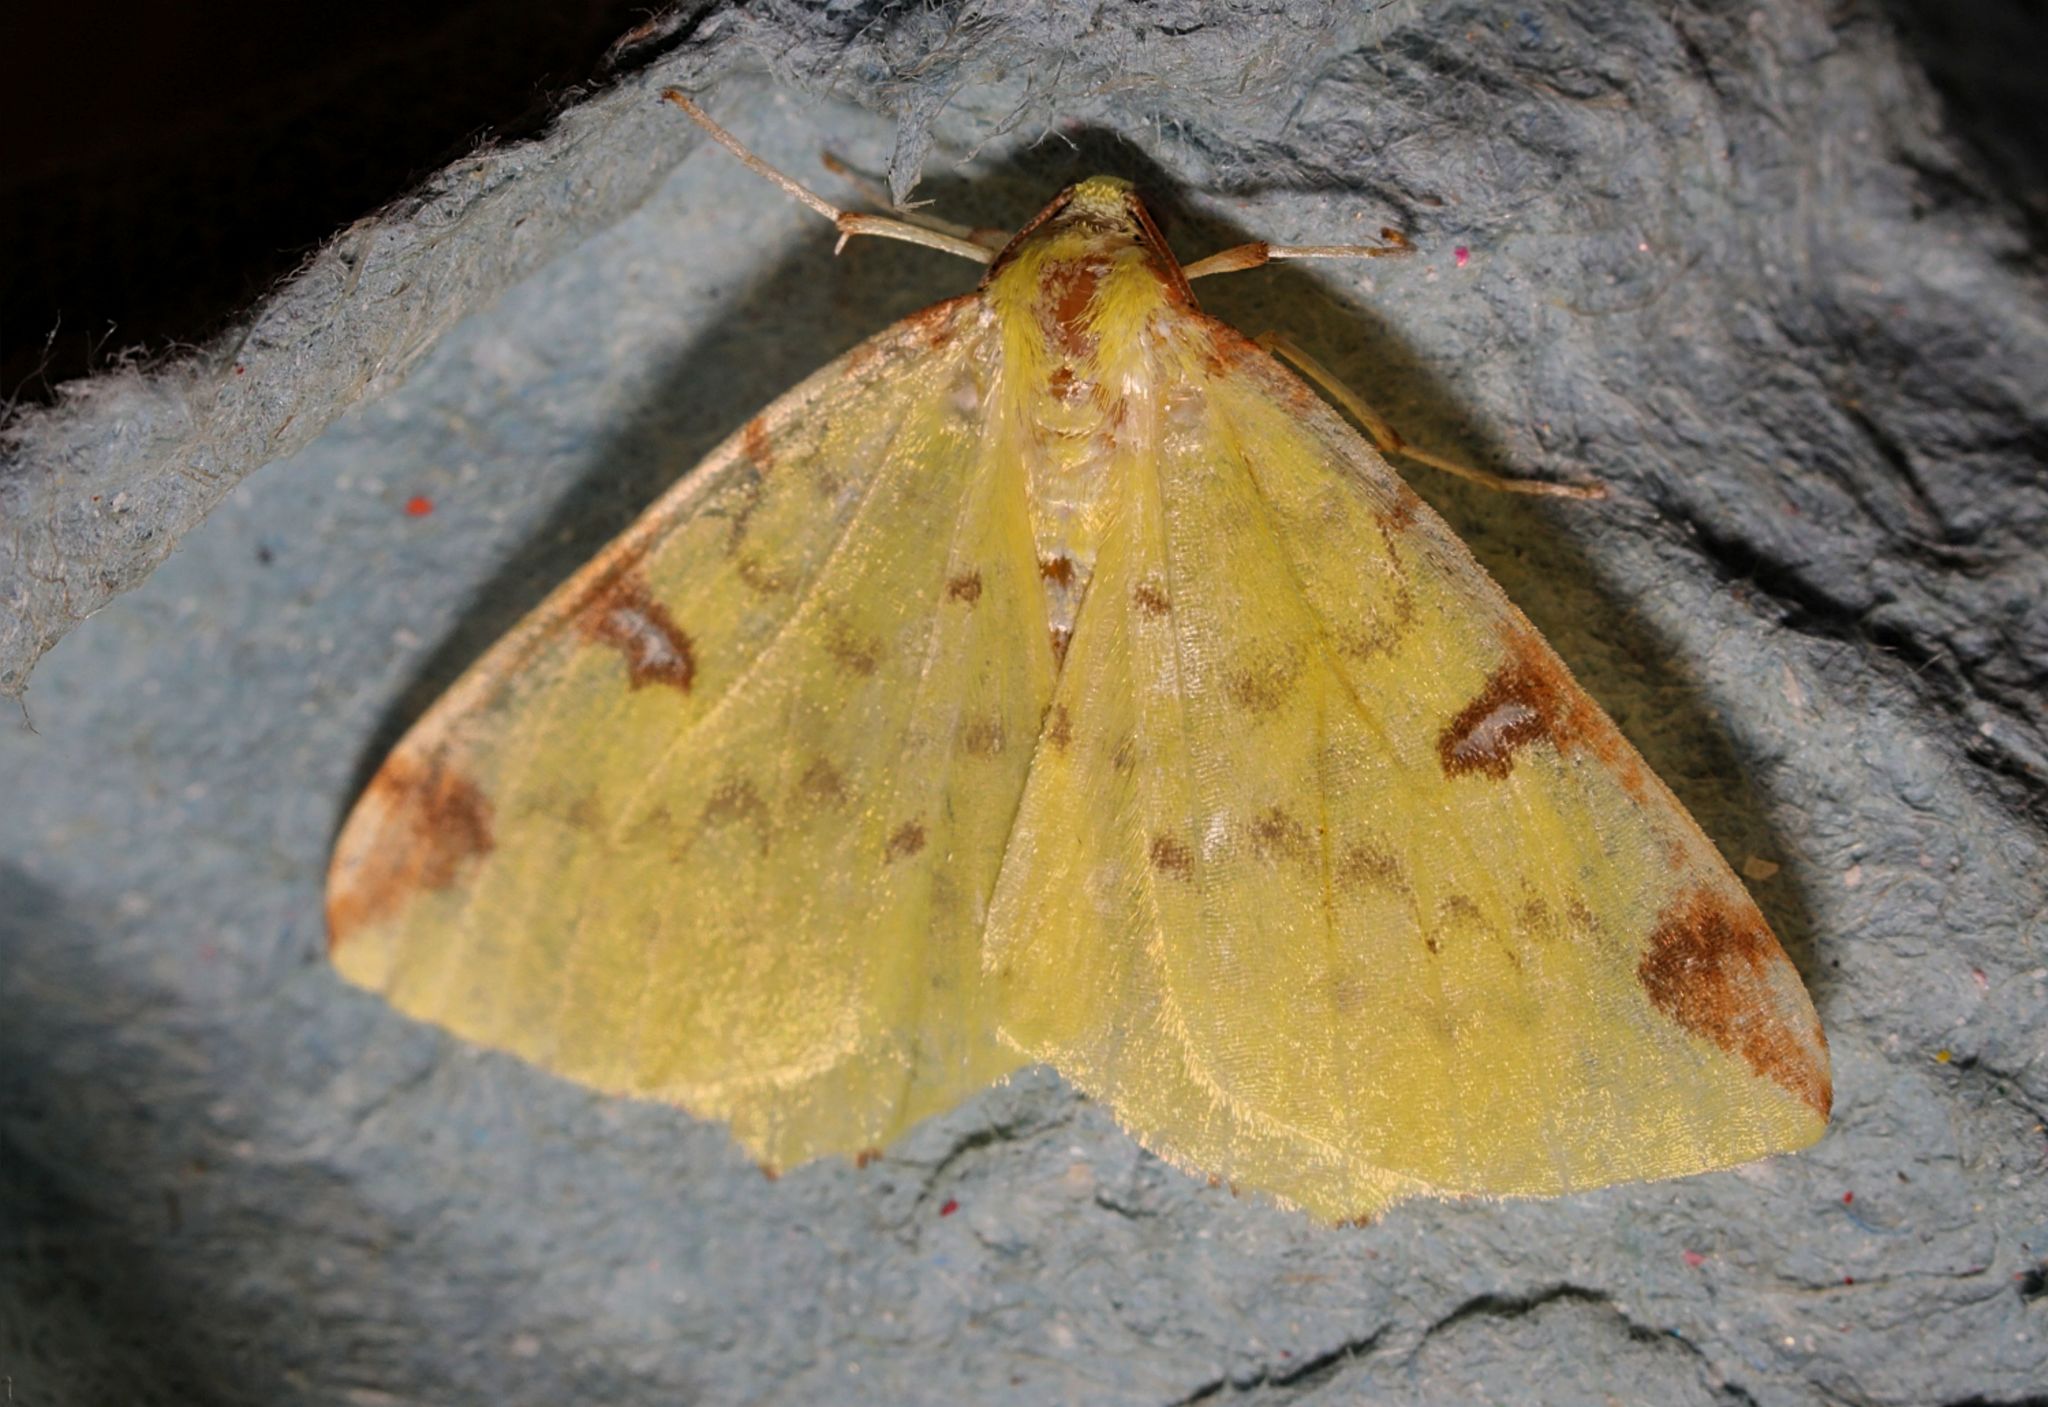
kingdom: Animalia
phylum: Arthropoda
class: Insecta
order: Lepidoptera
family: Geometridae
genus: Opisthograptis
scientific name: Opisthograptis luteolata
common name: Brimstone moth
